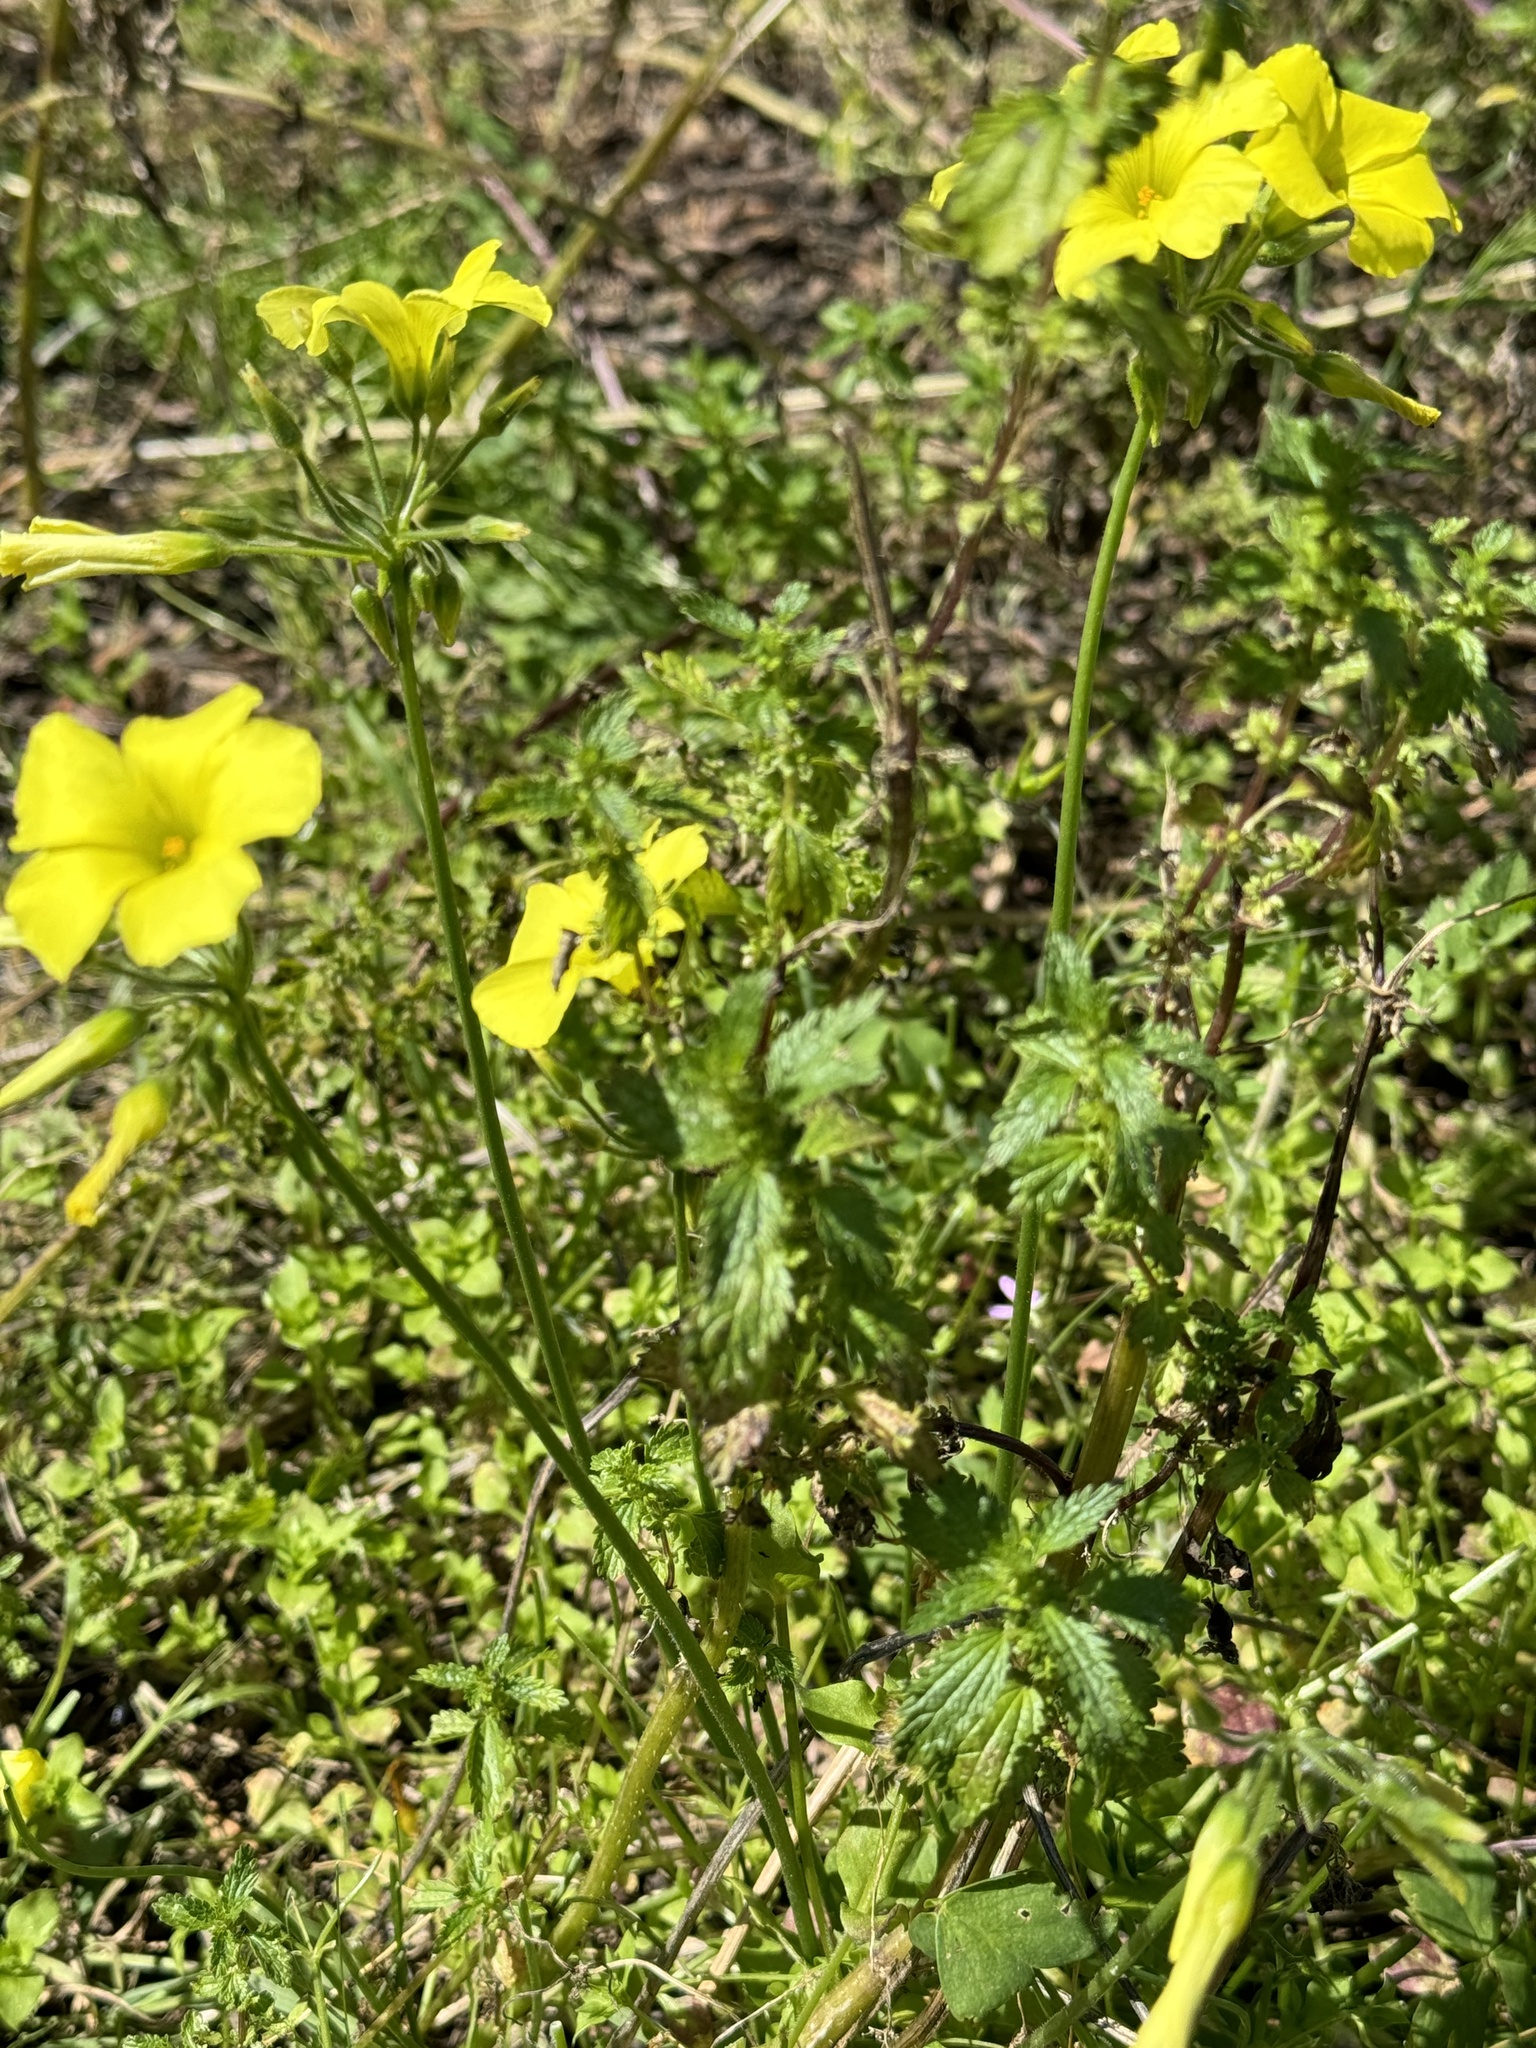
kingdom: Plantae
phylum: Tracheophyta
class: Magnoliopsida
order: Oxalidales
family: Oxalidaceae
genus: Oxalis
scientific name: Oxalis californica
